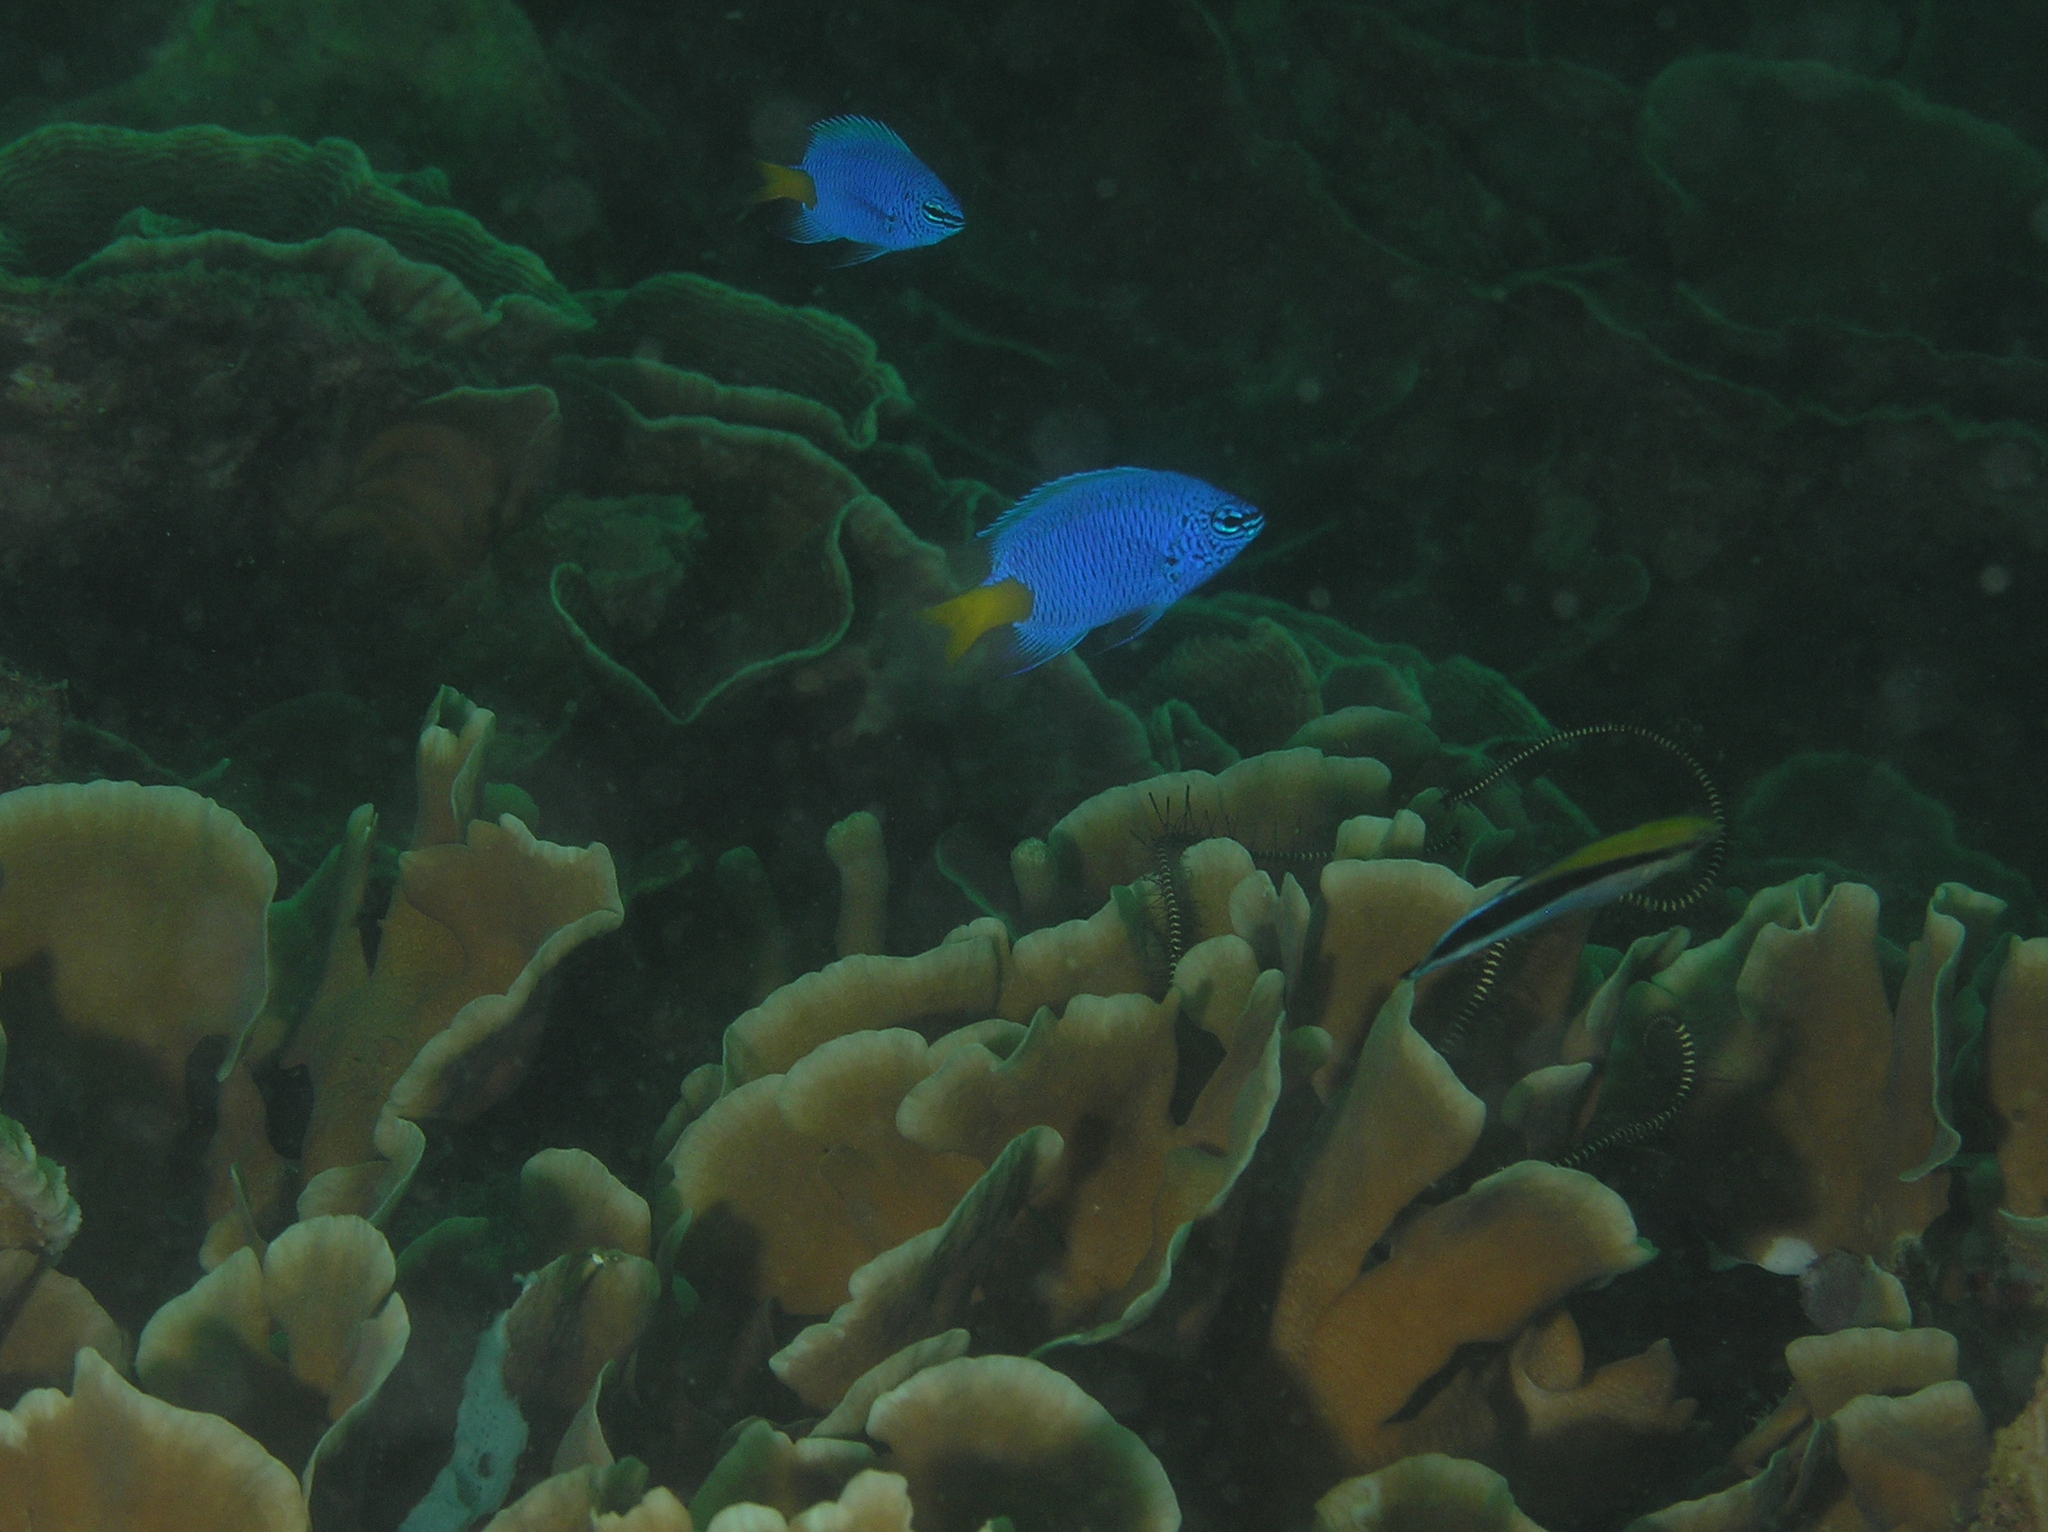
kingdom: Animalia
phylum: Chordata
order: Perciformes
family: Labridae
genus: Labroides
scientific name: Labroides dimidiatus
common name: Blue diesel wrasse
